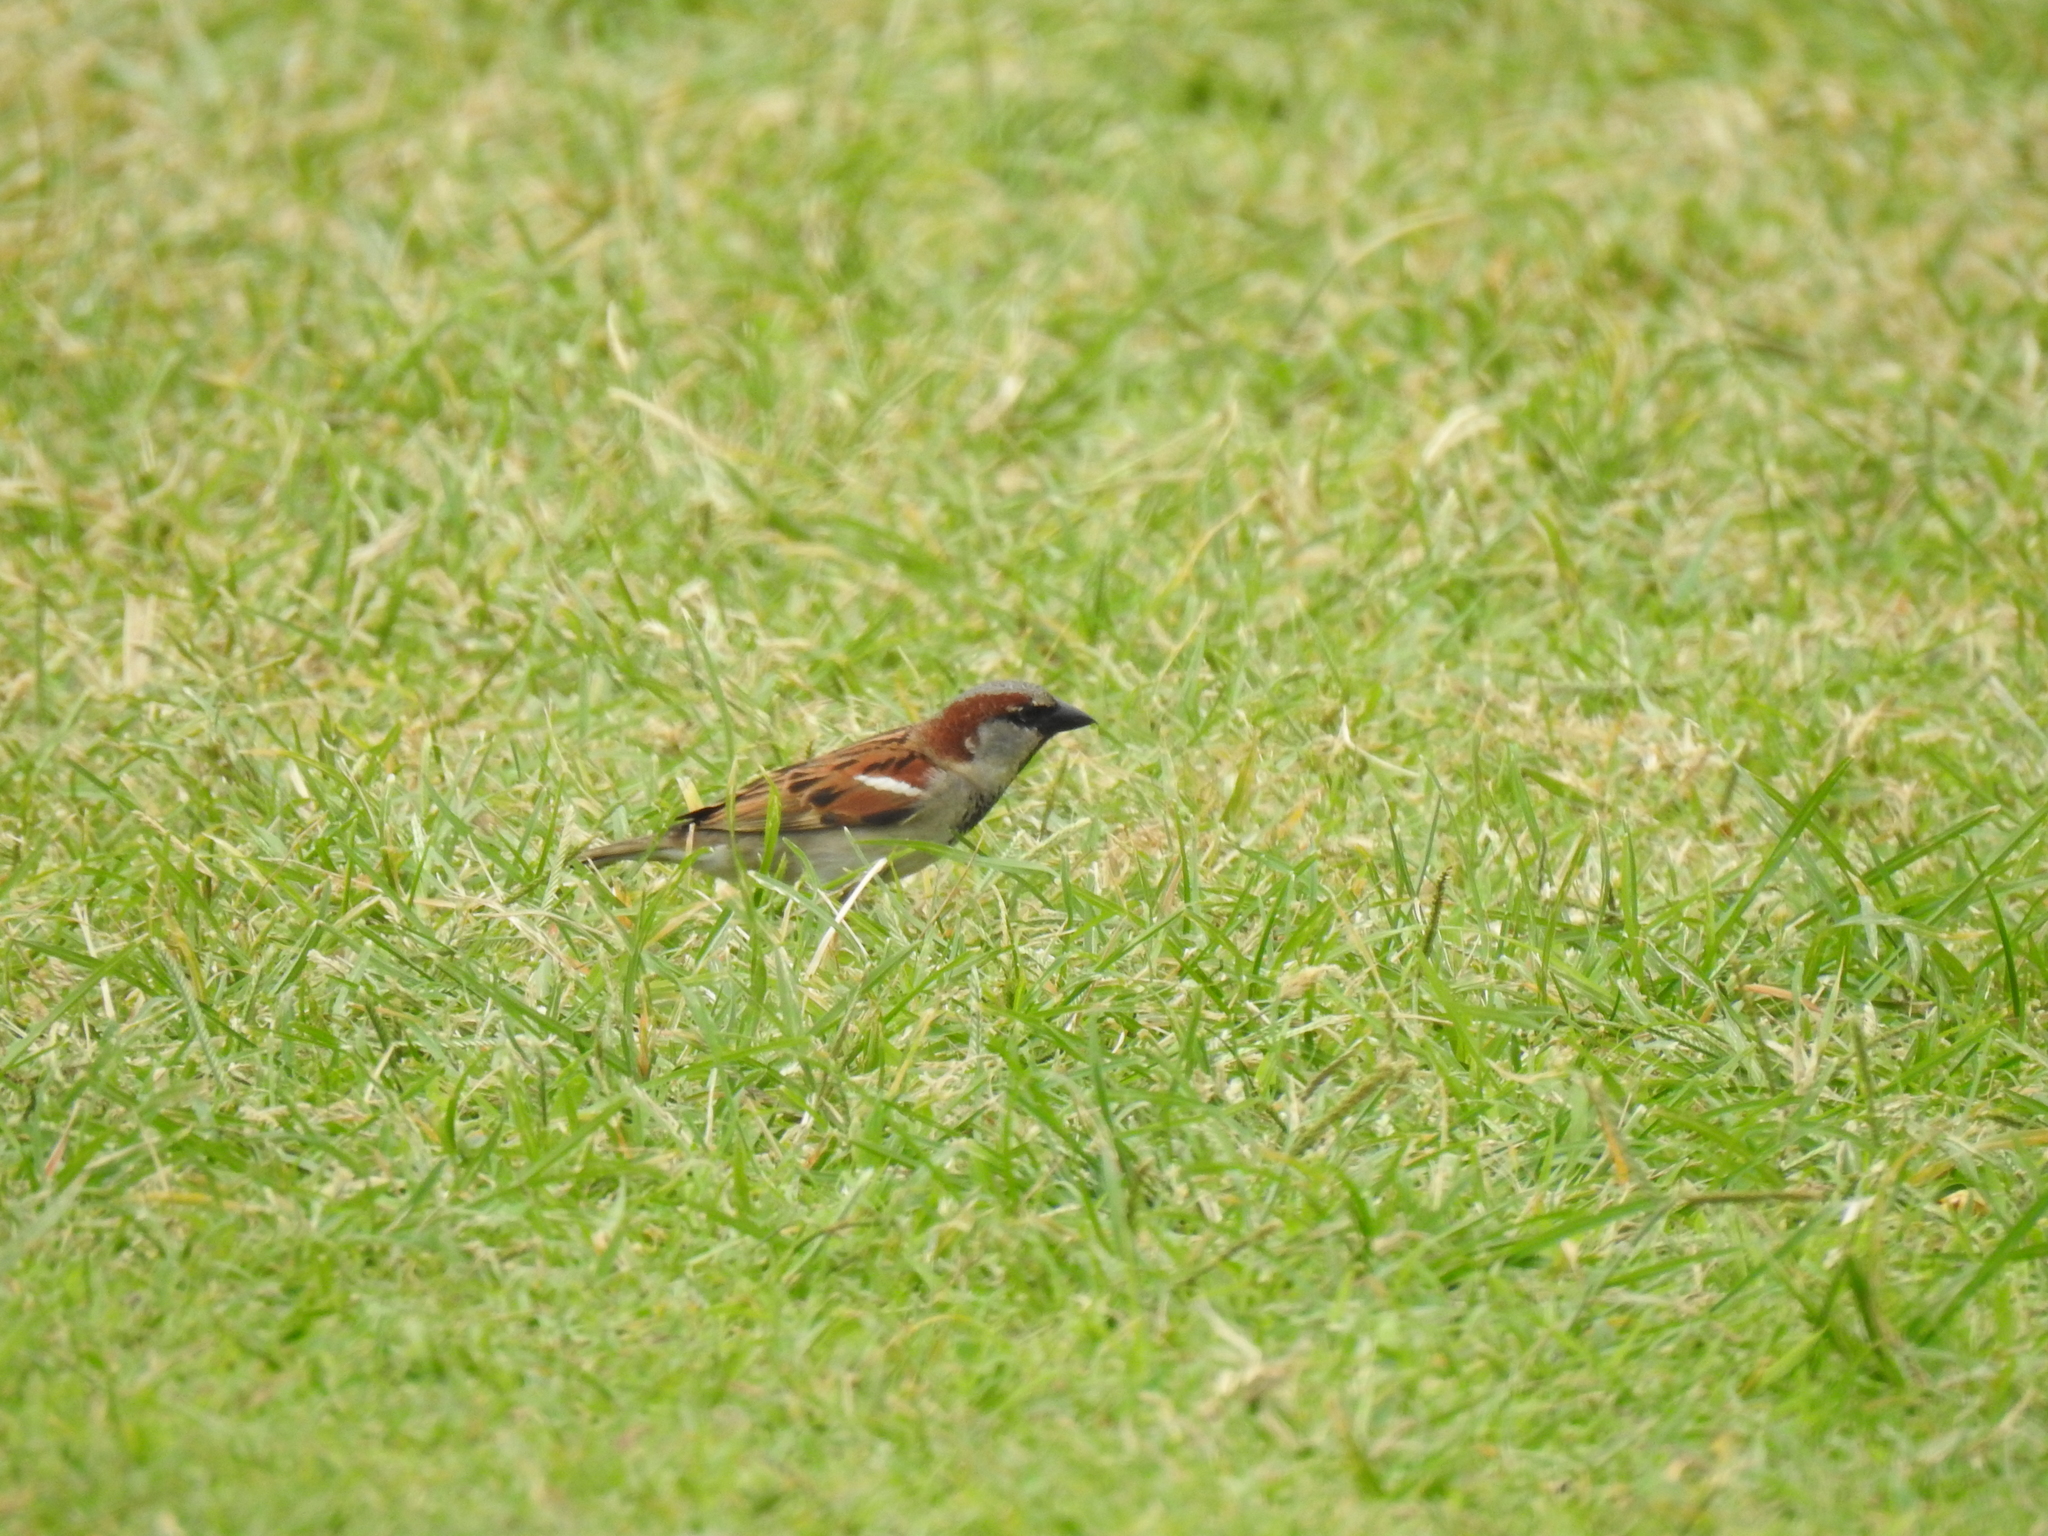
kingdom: Animalia
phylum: Chordata
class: Aves
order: Passeriformes
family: Passeridae
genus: Passer
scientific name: Passer domesticus
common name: House sparrow
